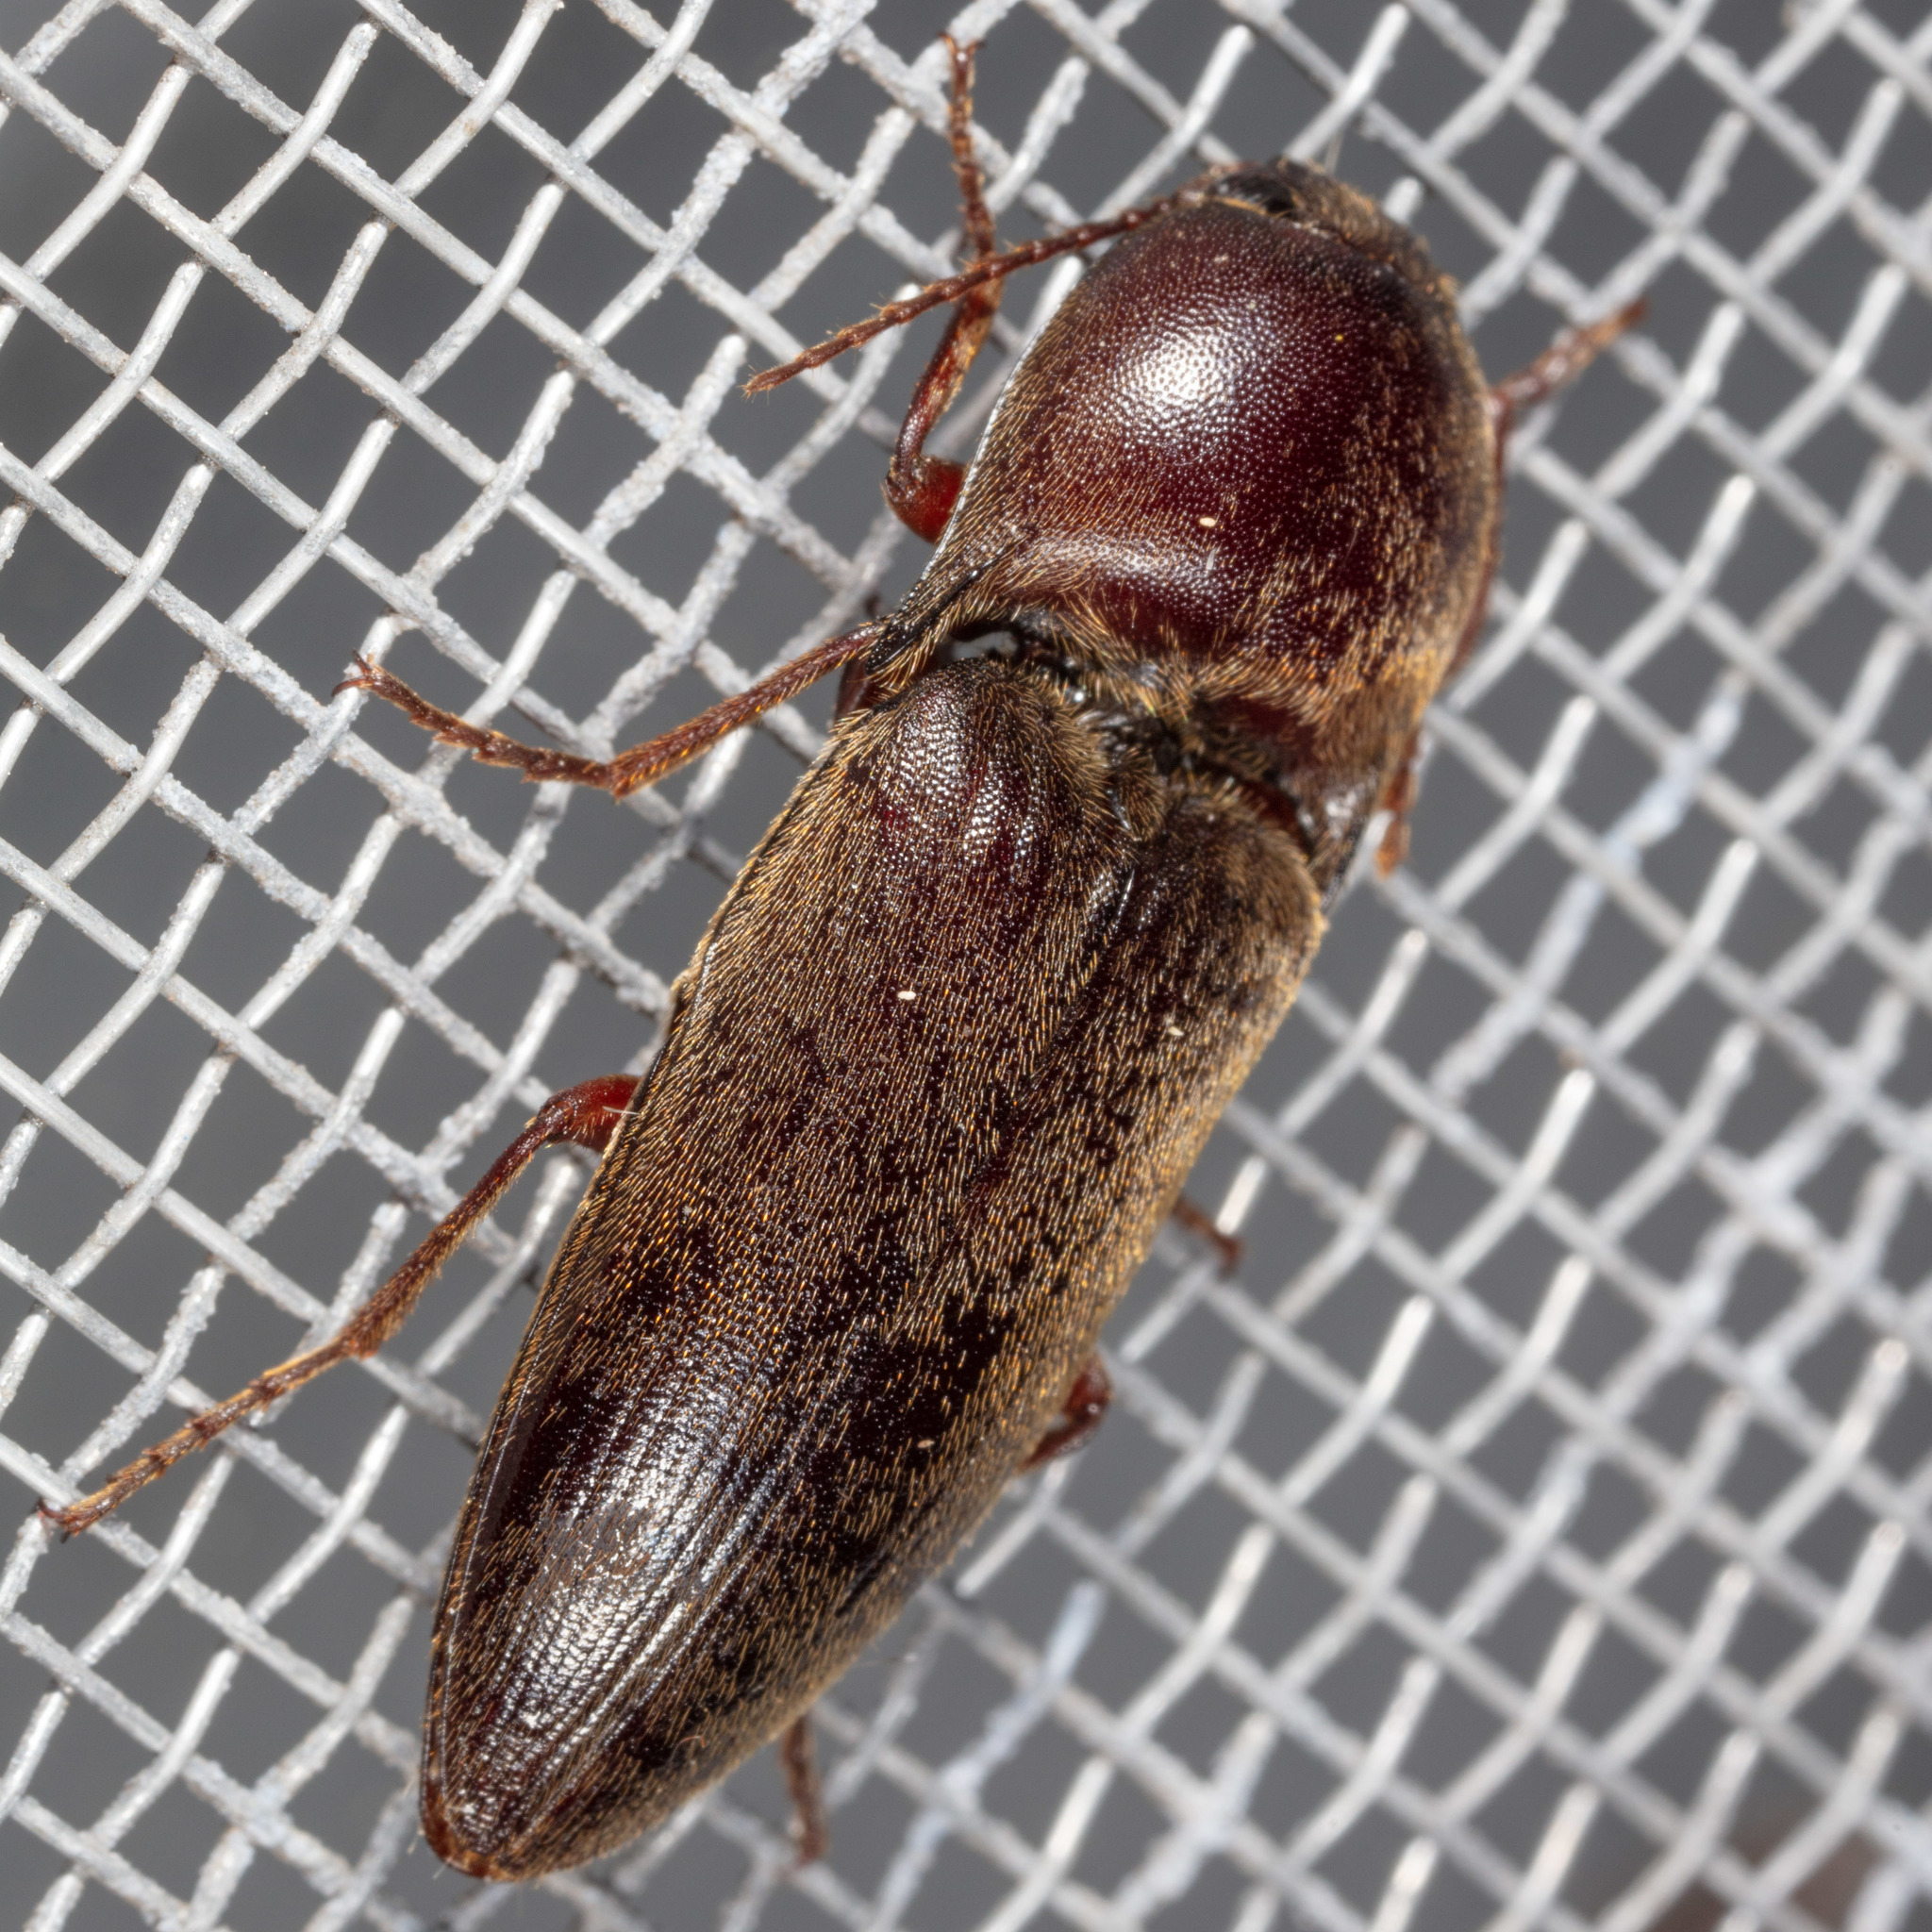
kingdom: Animalia
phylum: Arthropoda
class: Insecta
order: Coleoptera
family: Elateridae
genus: Diplostethus
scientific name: Diplostethus
